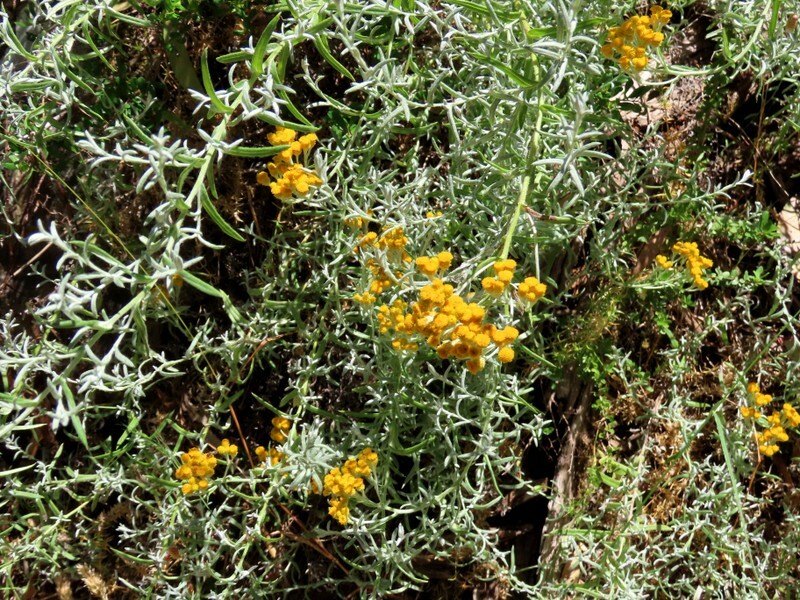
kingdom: Plantae
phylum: Tracheophyta
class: Magnoliopsida
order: Asterales
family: Asteraceae
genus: Chrysocephalum
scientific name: Chrysocephalum semipapposum
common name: Clustered everlasting
